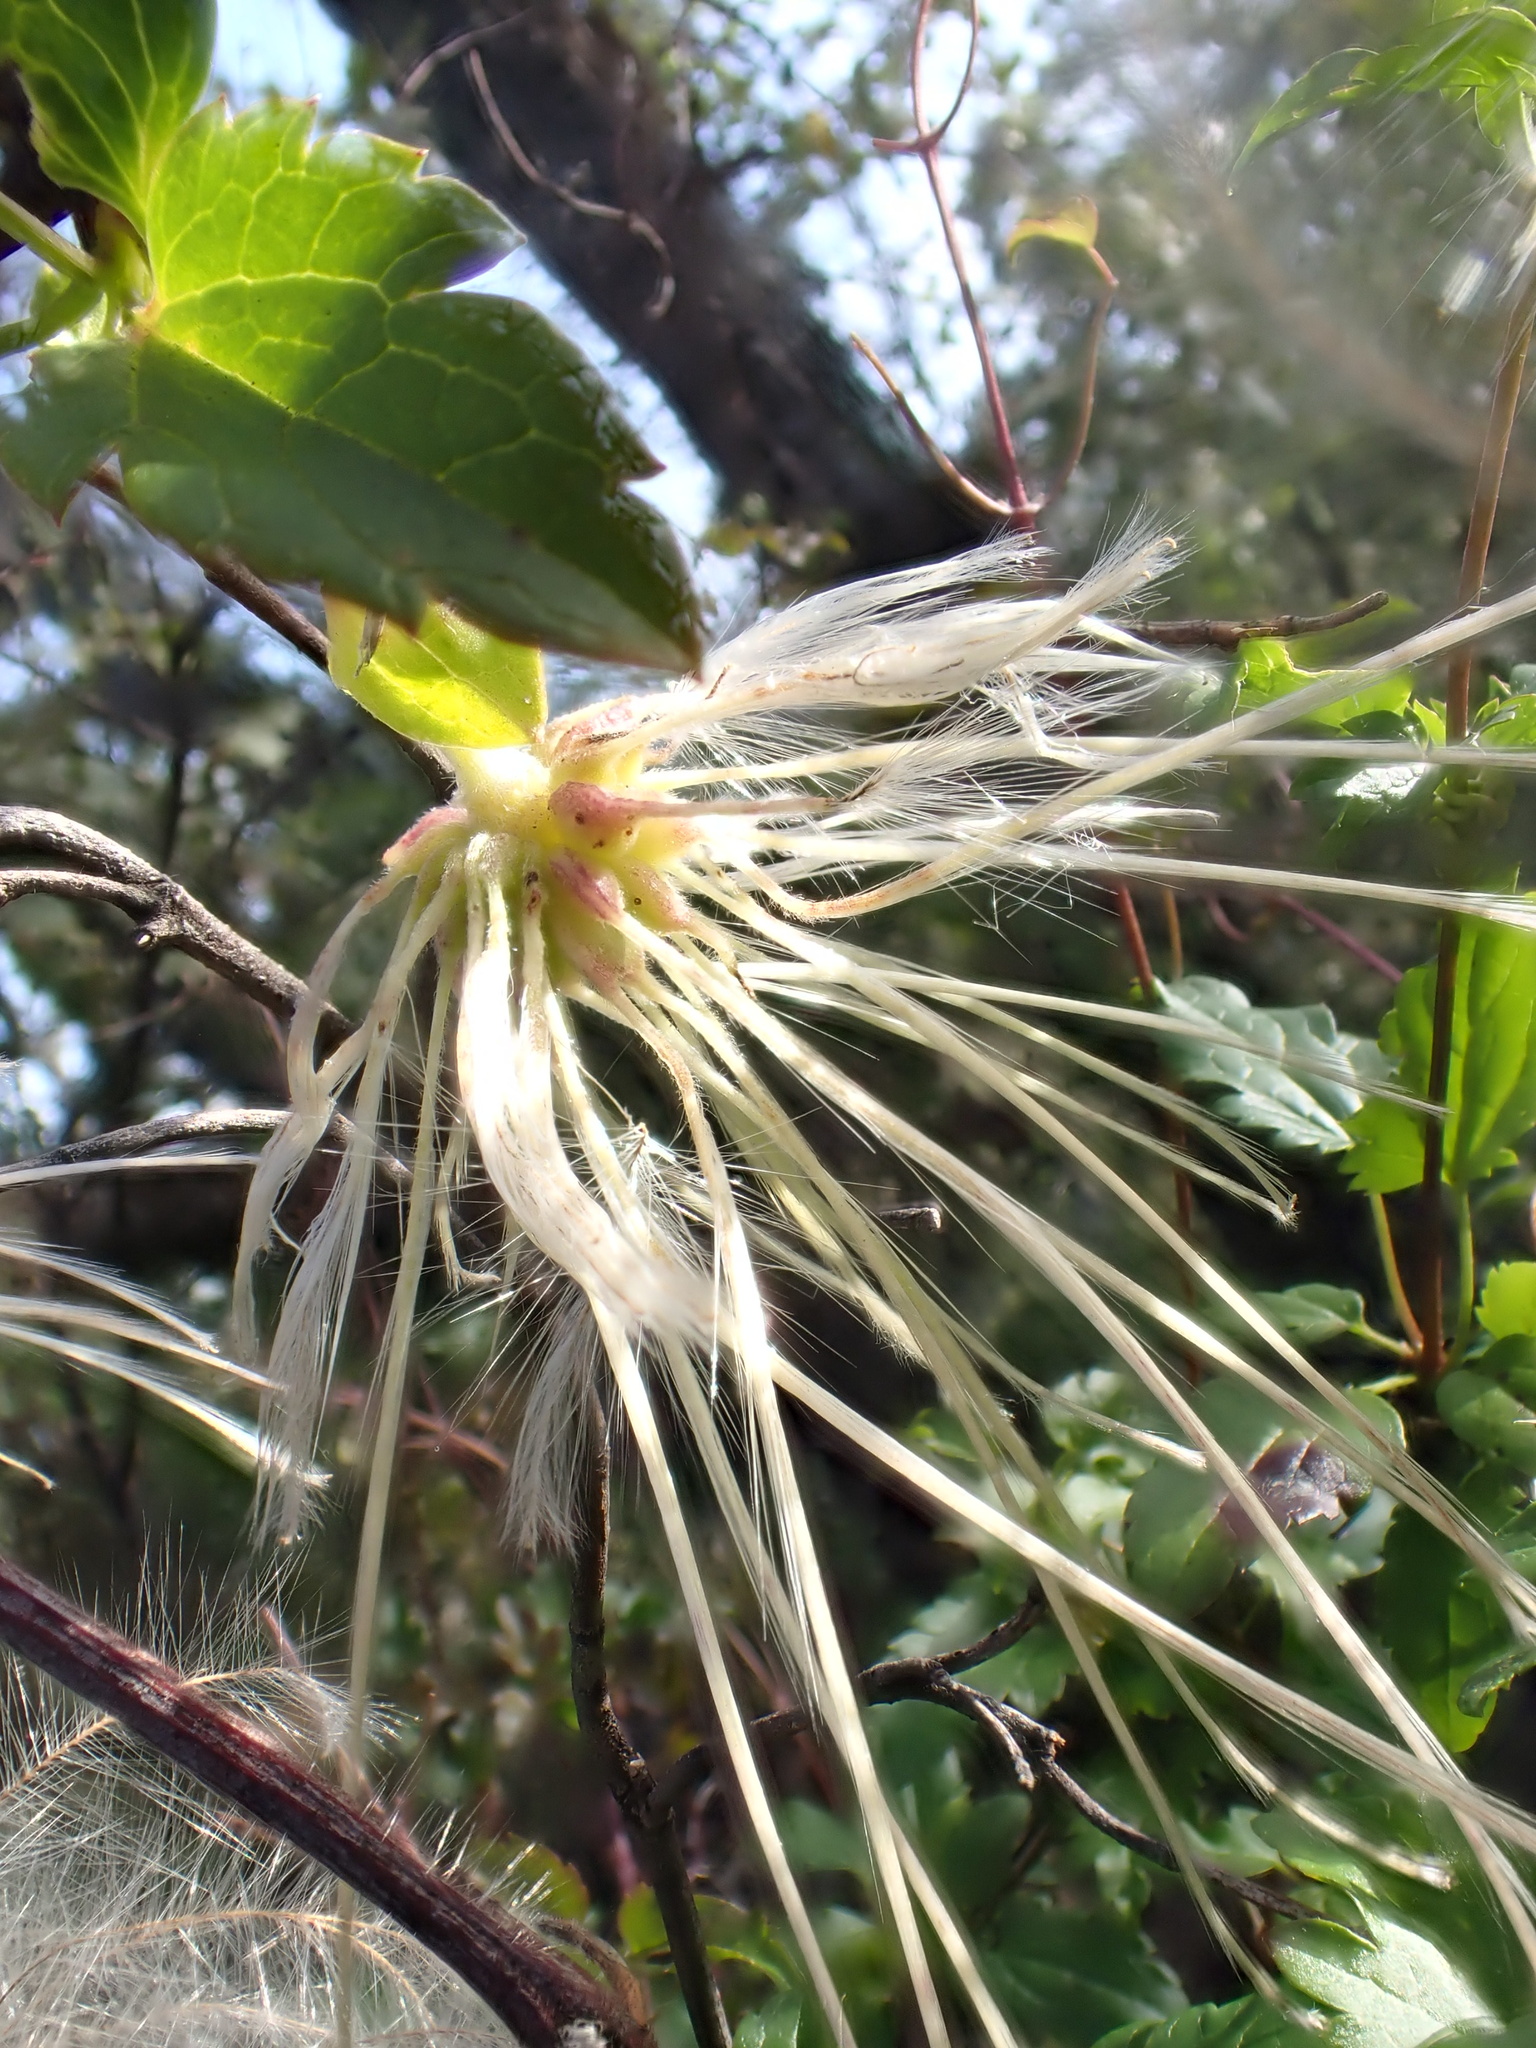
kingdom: Plantae
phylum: Tracheophyta
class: Magnoliopsida
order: Ranunculales
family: Ranunculaceae
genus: Clematis
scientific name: Clematis cirrhosa
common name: Early virgin's-bower
